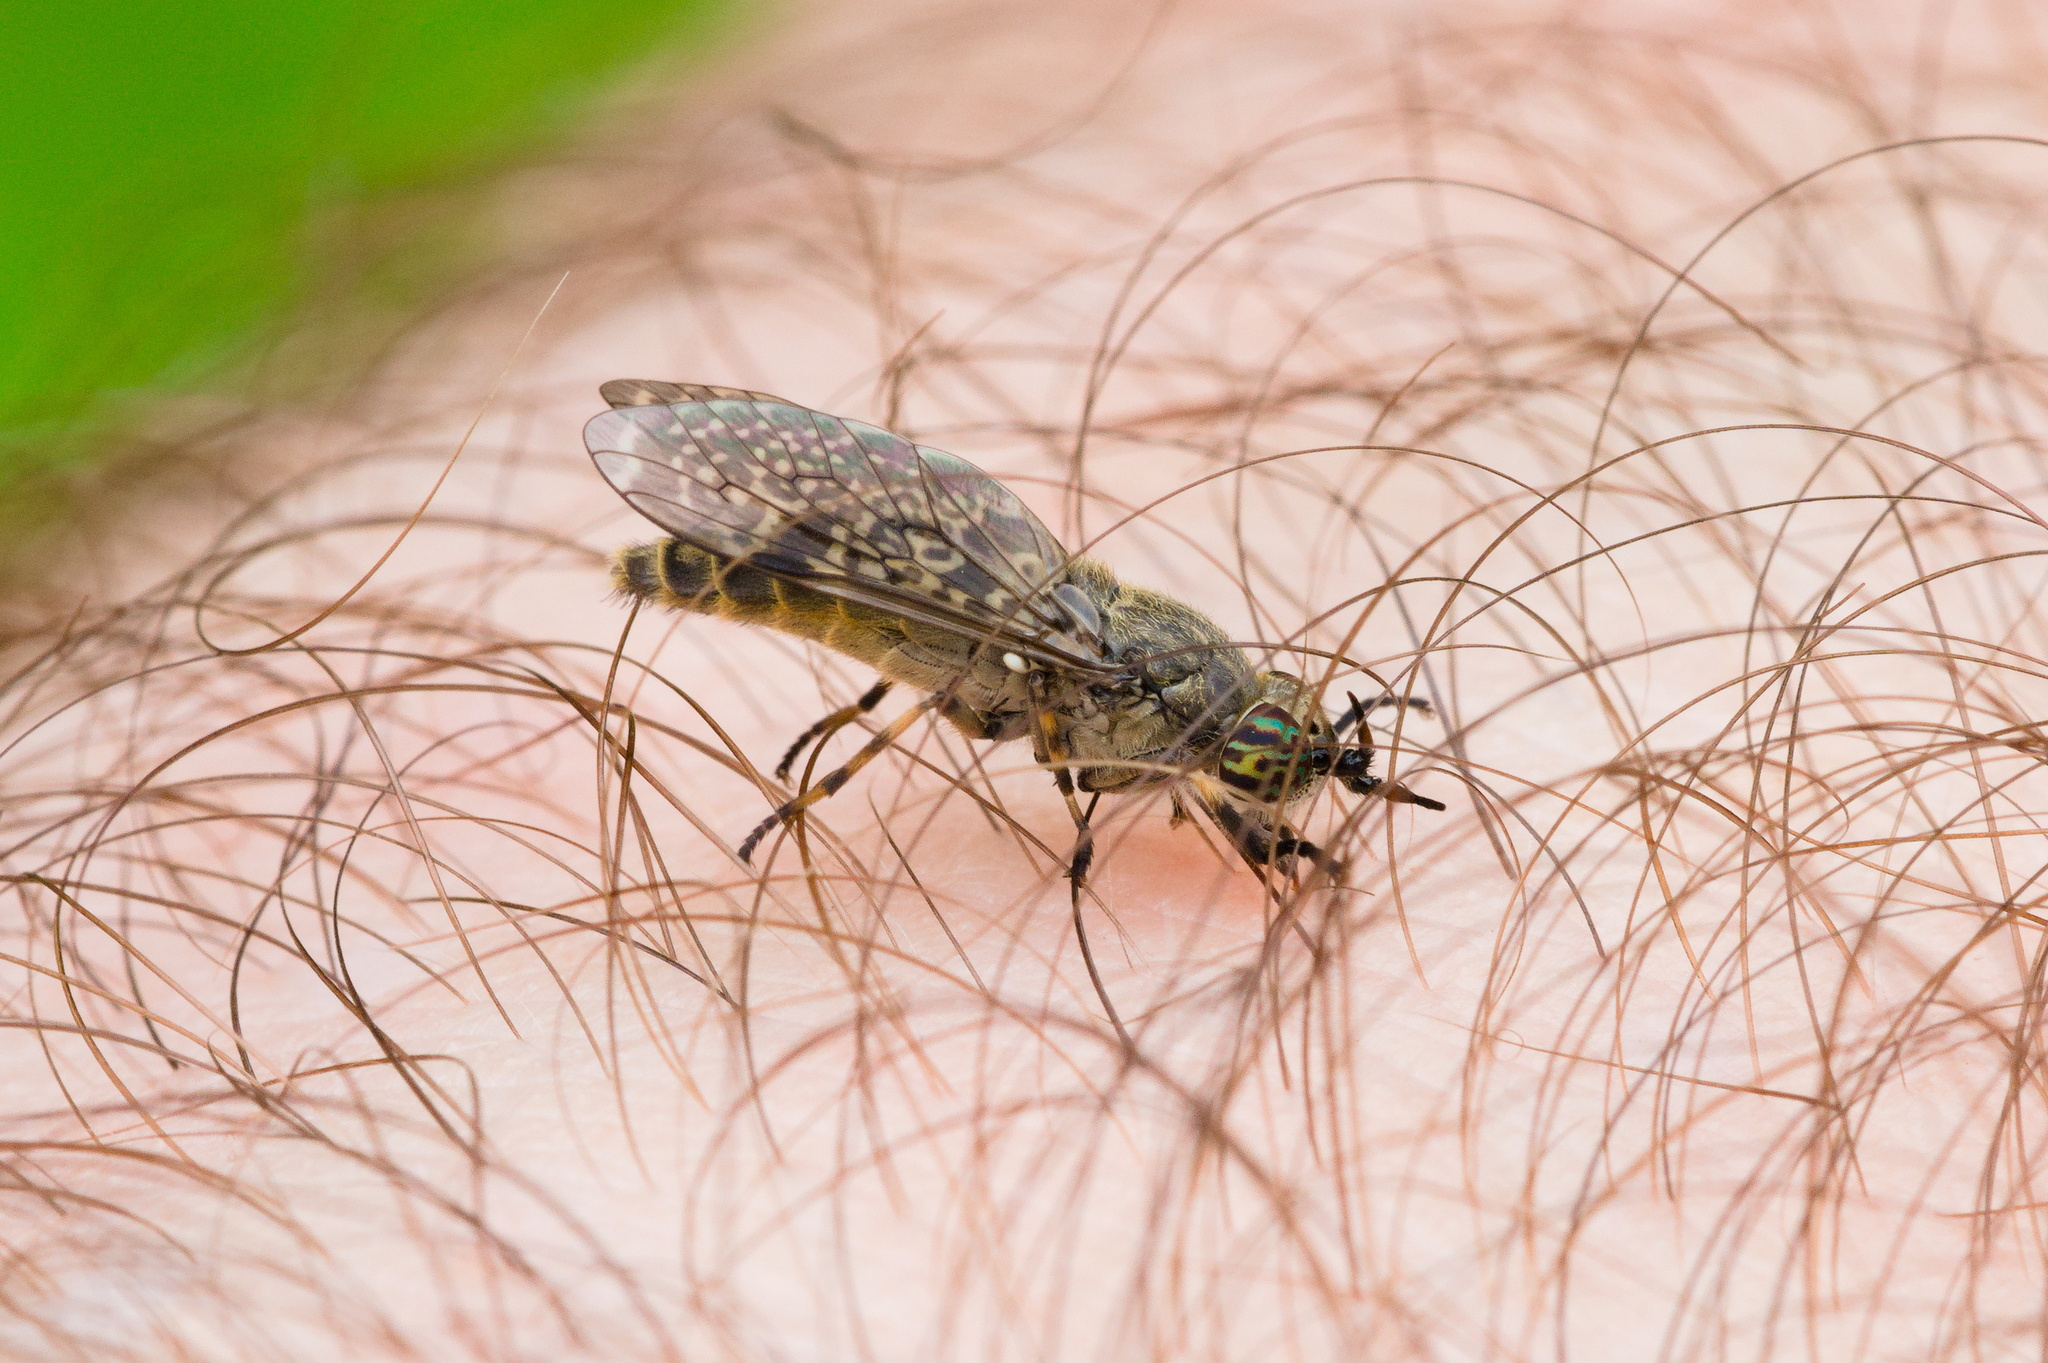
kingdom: Animalia
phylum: Arthropoda
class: Insecta
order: Diptera
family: Tabanidae
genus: Haematopota
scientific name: Haematopota pluvialis
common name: Common horse fly
